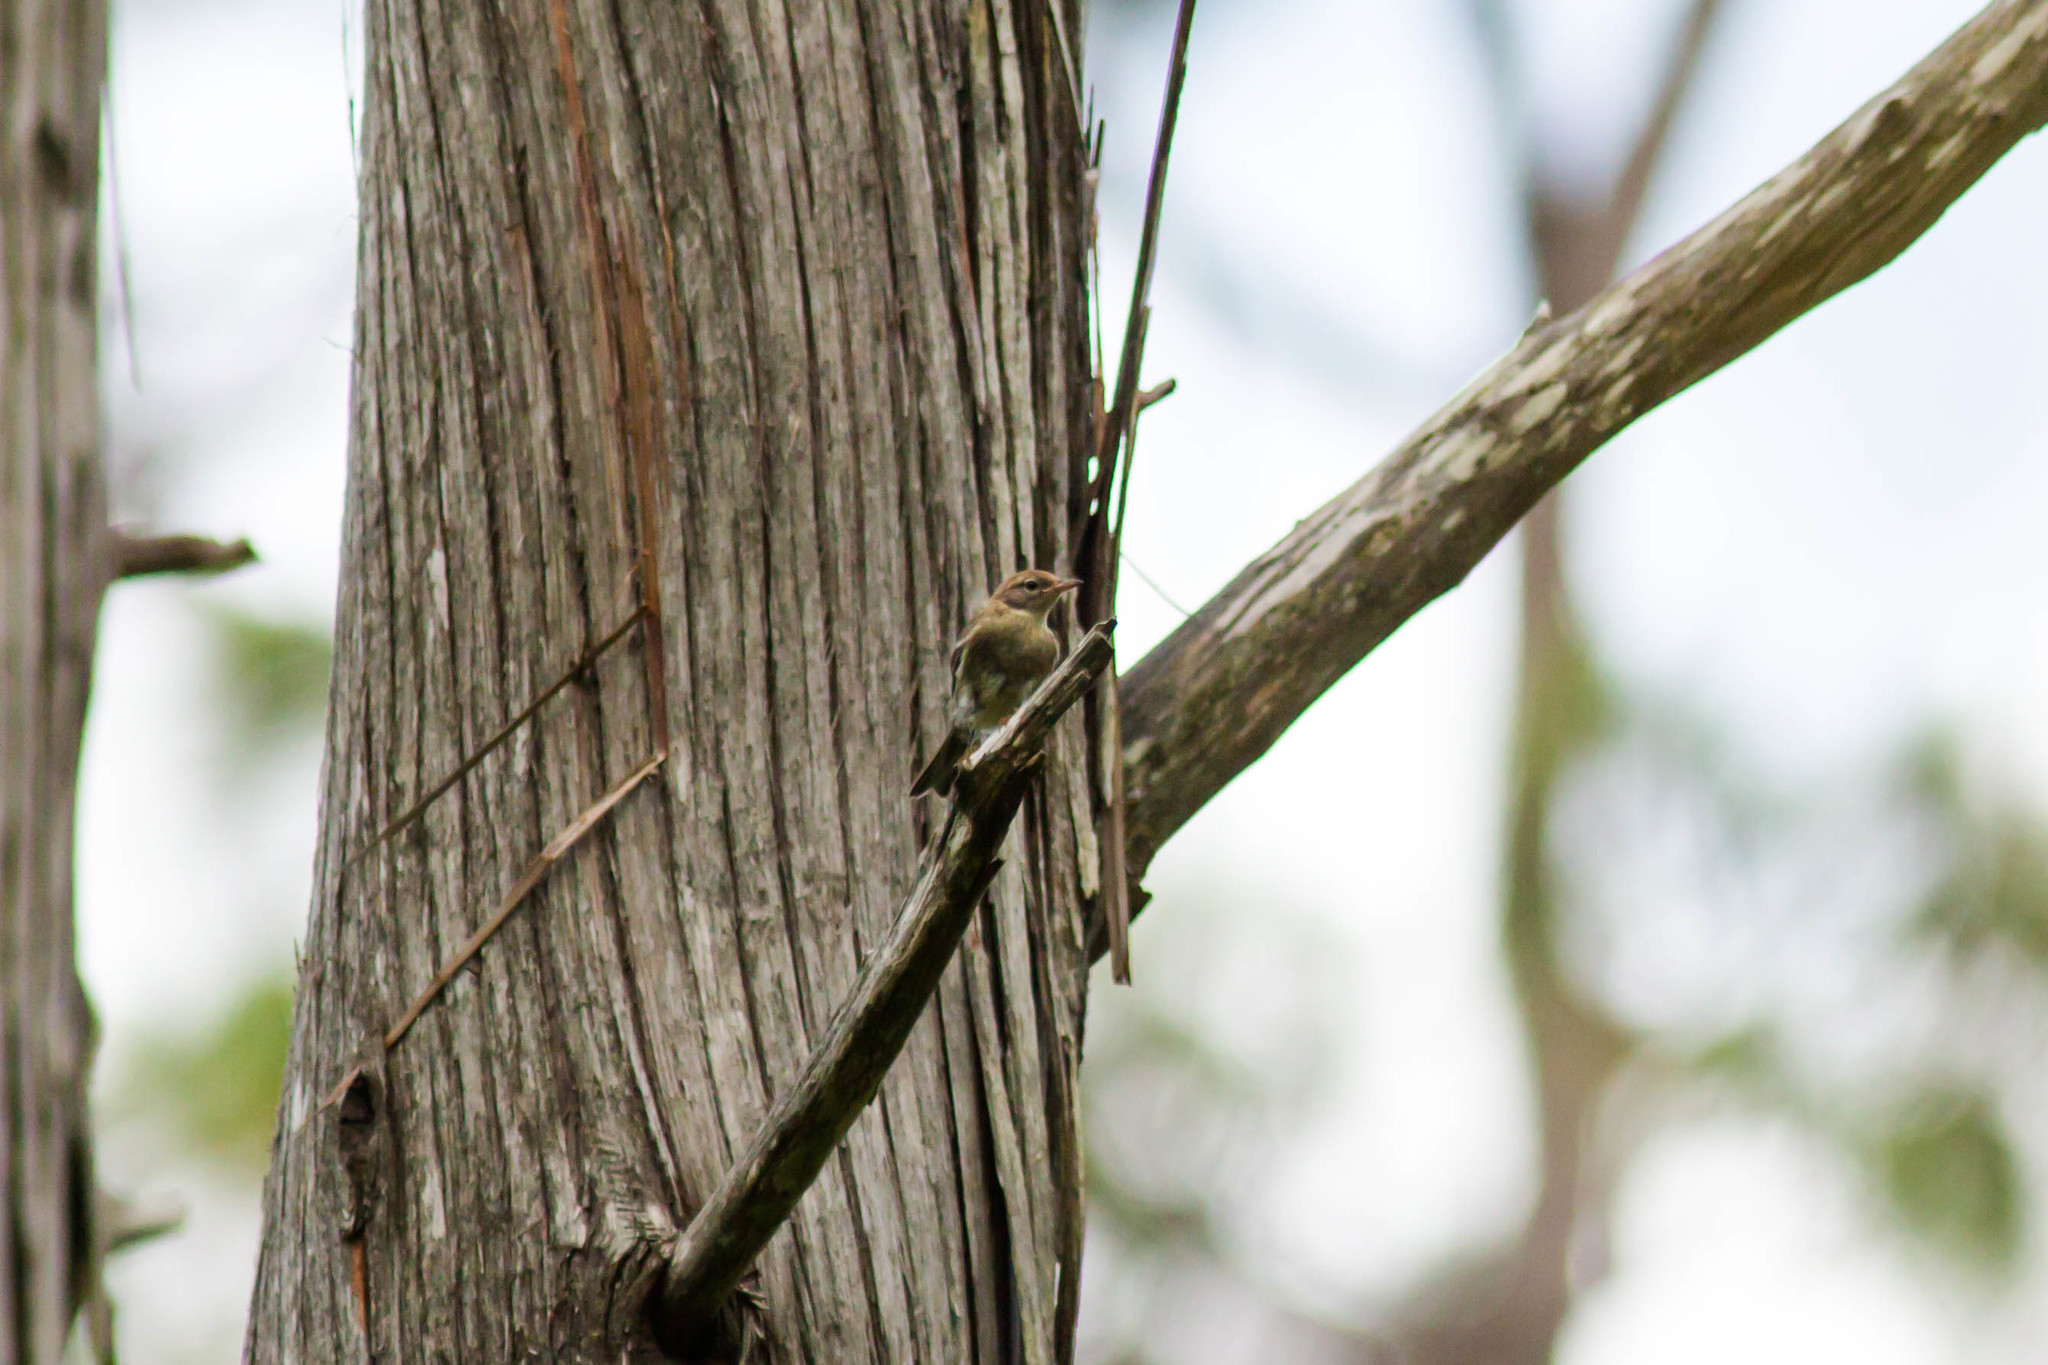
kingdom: Animalia
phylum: Chordata
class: Aves
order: Passeriformes
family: Parulidae
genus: Setophaga
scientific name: Setophaga pinus
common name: Pine warbler
